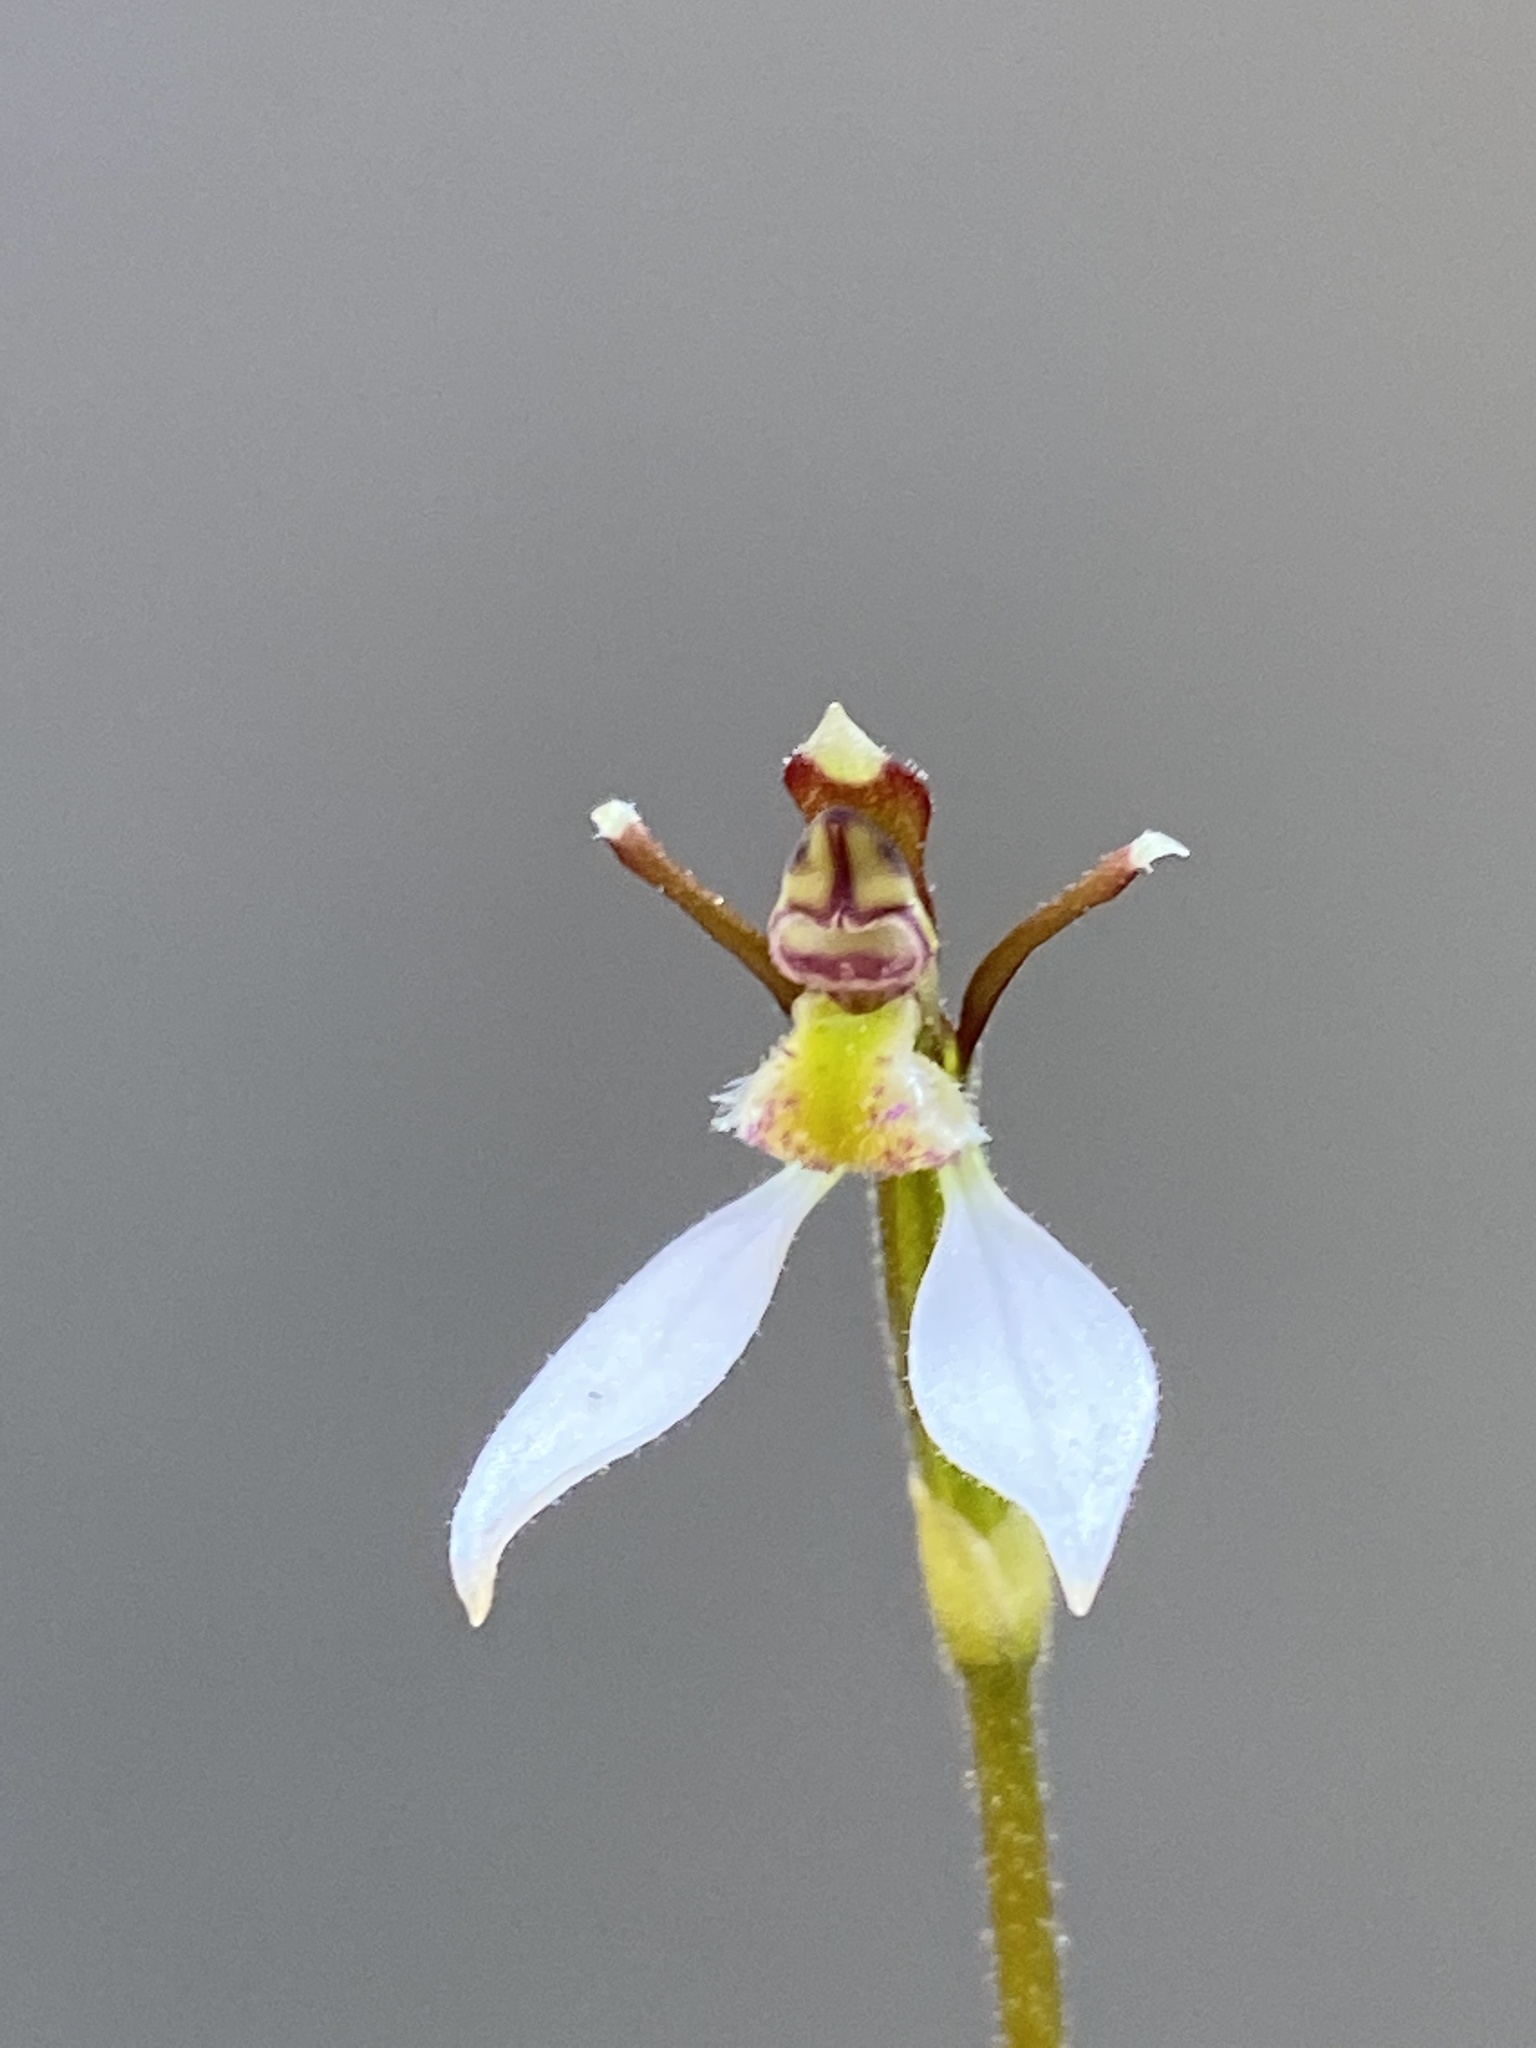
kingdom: Plantae
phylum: Tracheophyta
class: Liliopsida
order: Asparagales
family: Orchidaceae
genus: Eriochilus
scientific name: Eriochilus cucullatus
